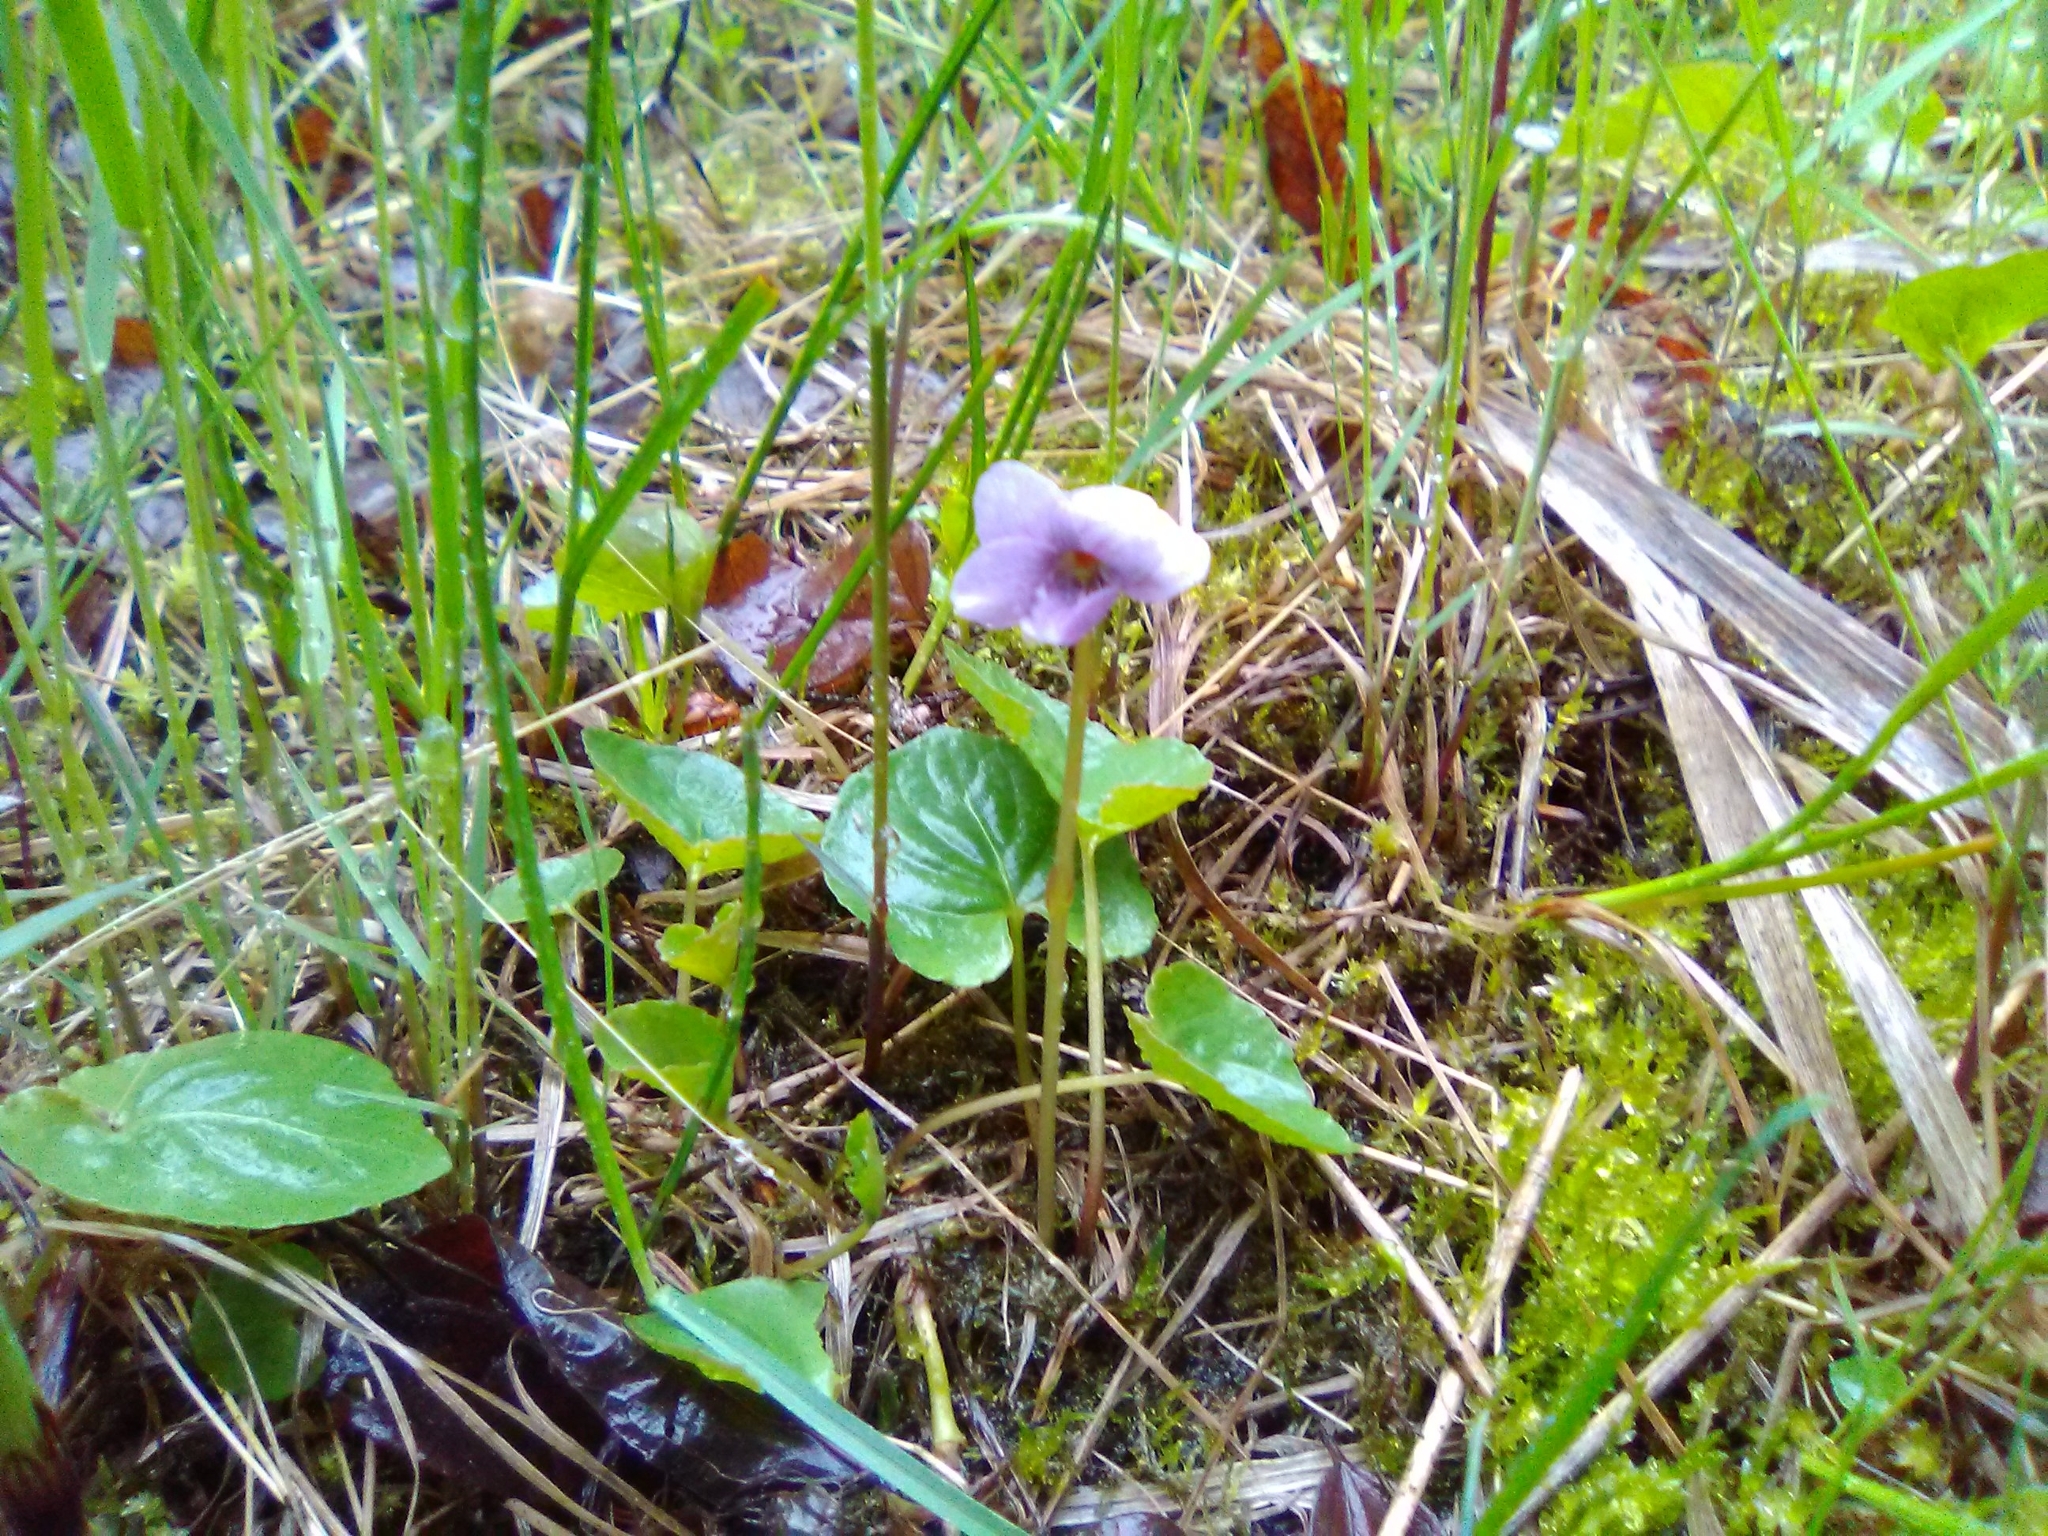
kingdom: Plantae
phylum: Tracheophyta
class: Magnoliopsida
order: Malpighiales
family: Violaceae
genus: Viola
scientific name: Viola epipsila
